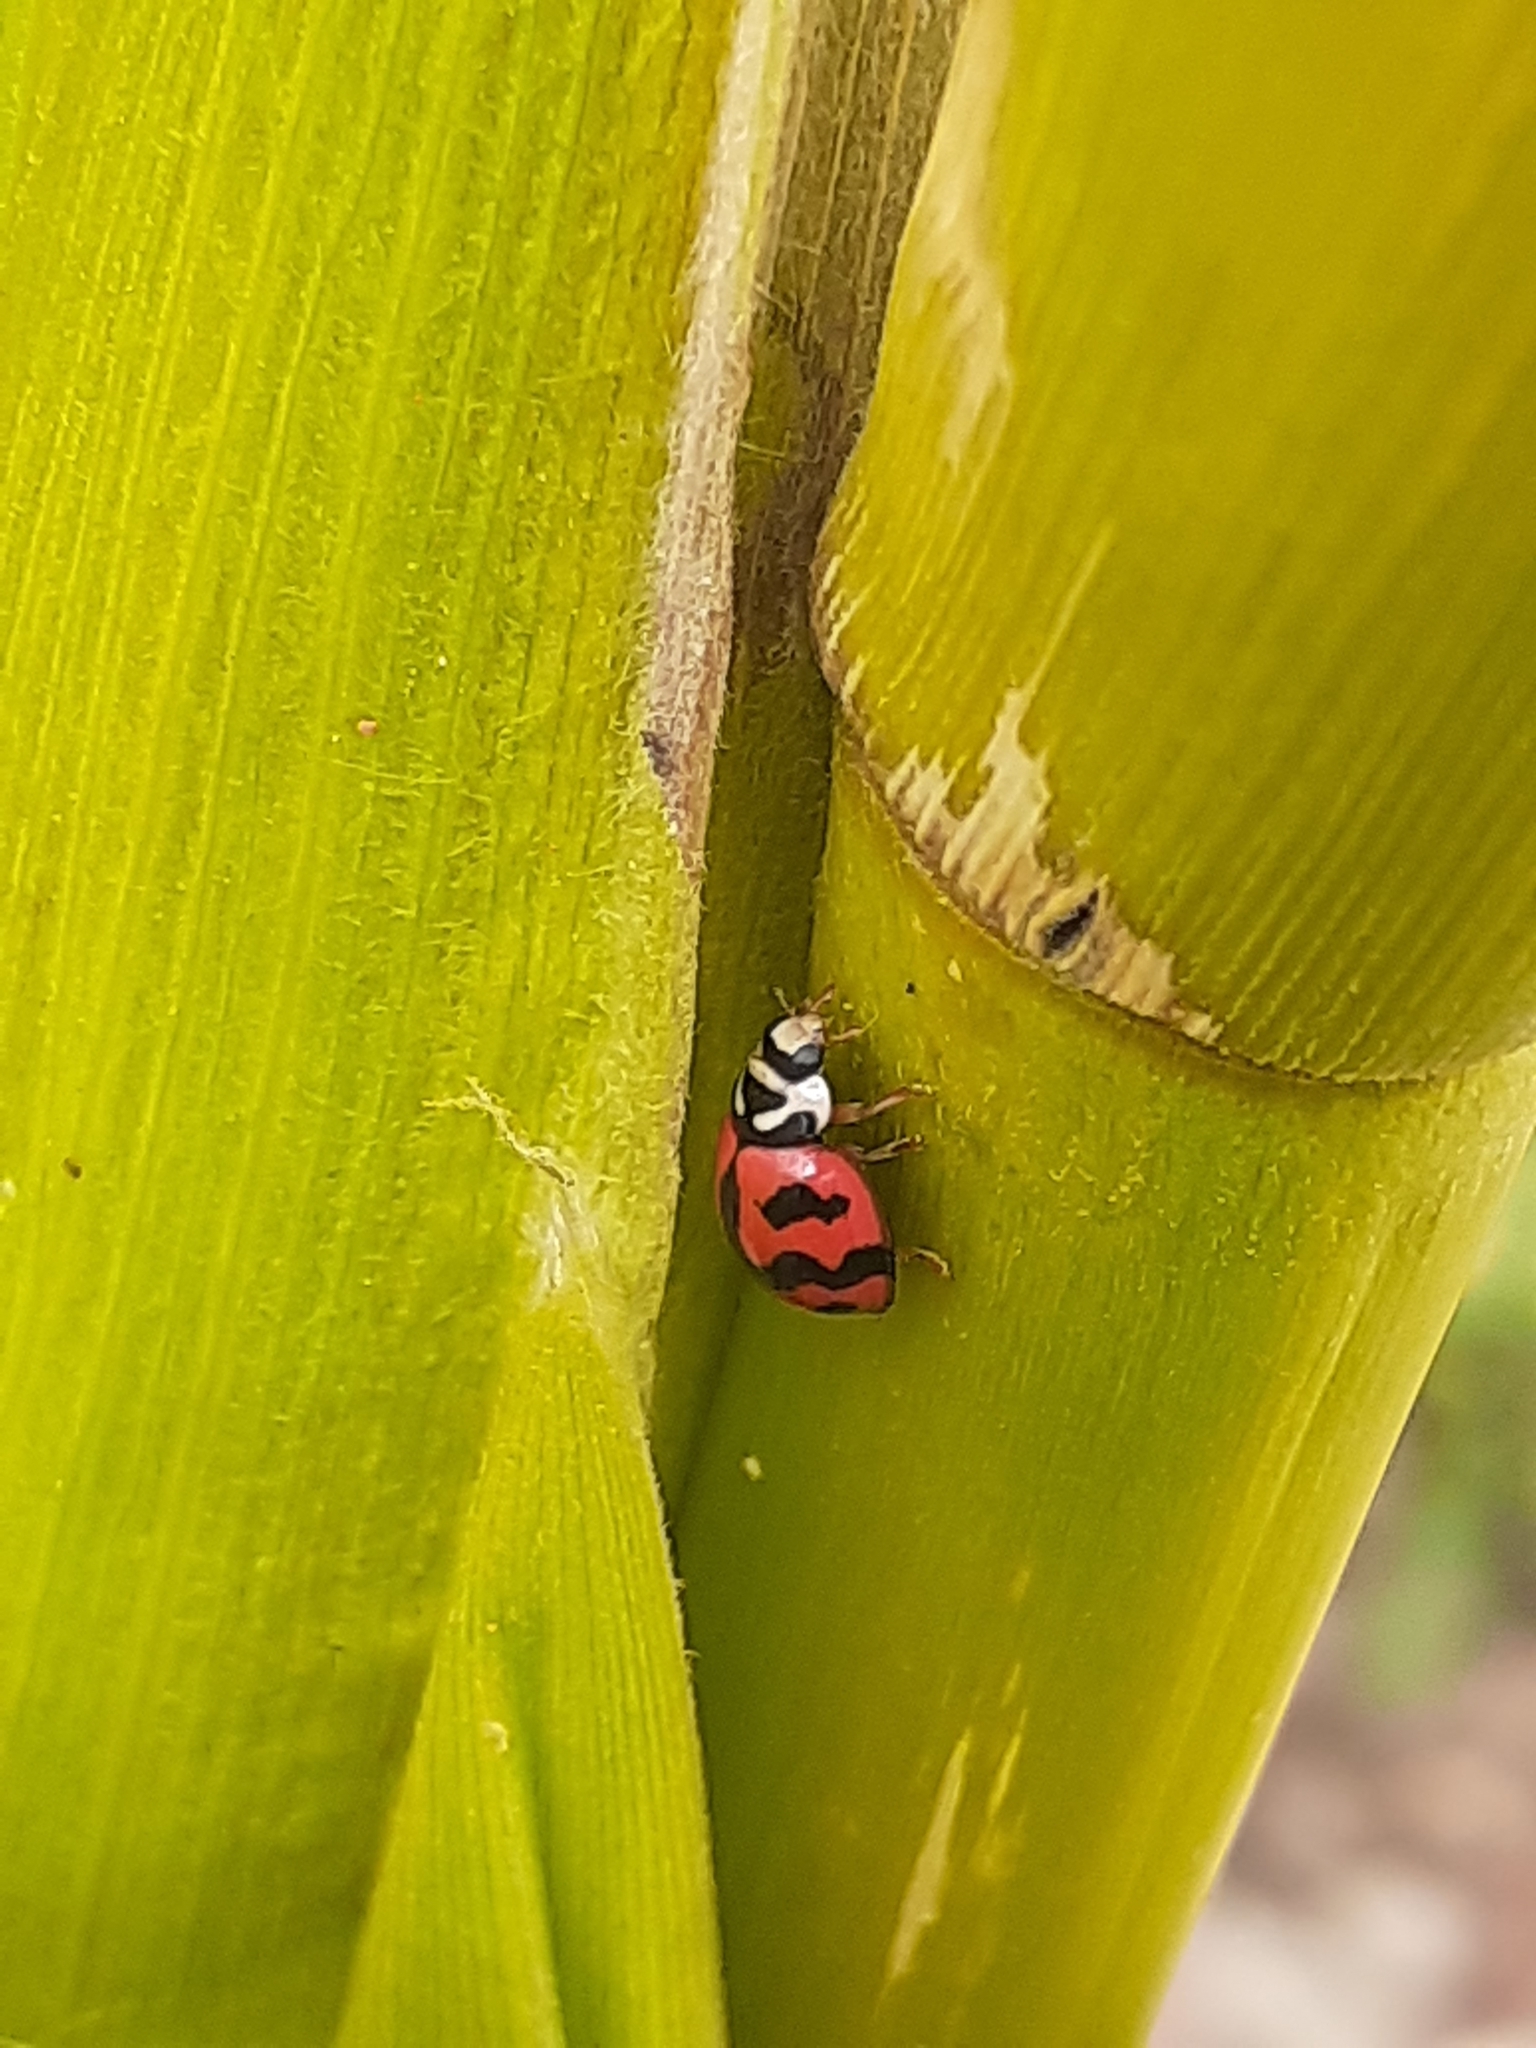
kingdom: Animalia
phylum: Arthropoda
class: Insecta
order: Coleoptera
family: Coccinellidae
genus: Cheilomenes
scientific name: Cheilomenes sexmaculata
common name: Ladybird beetle
